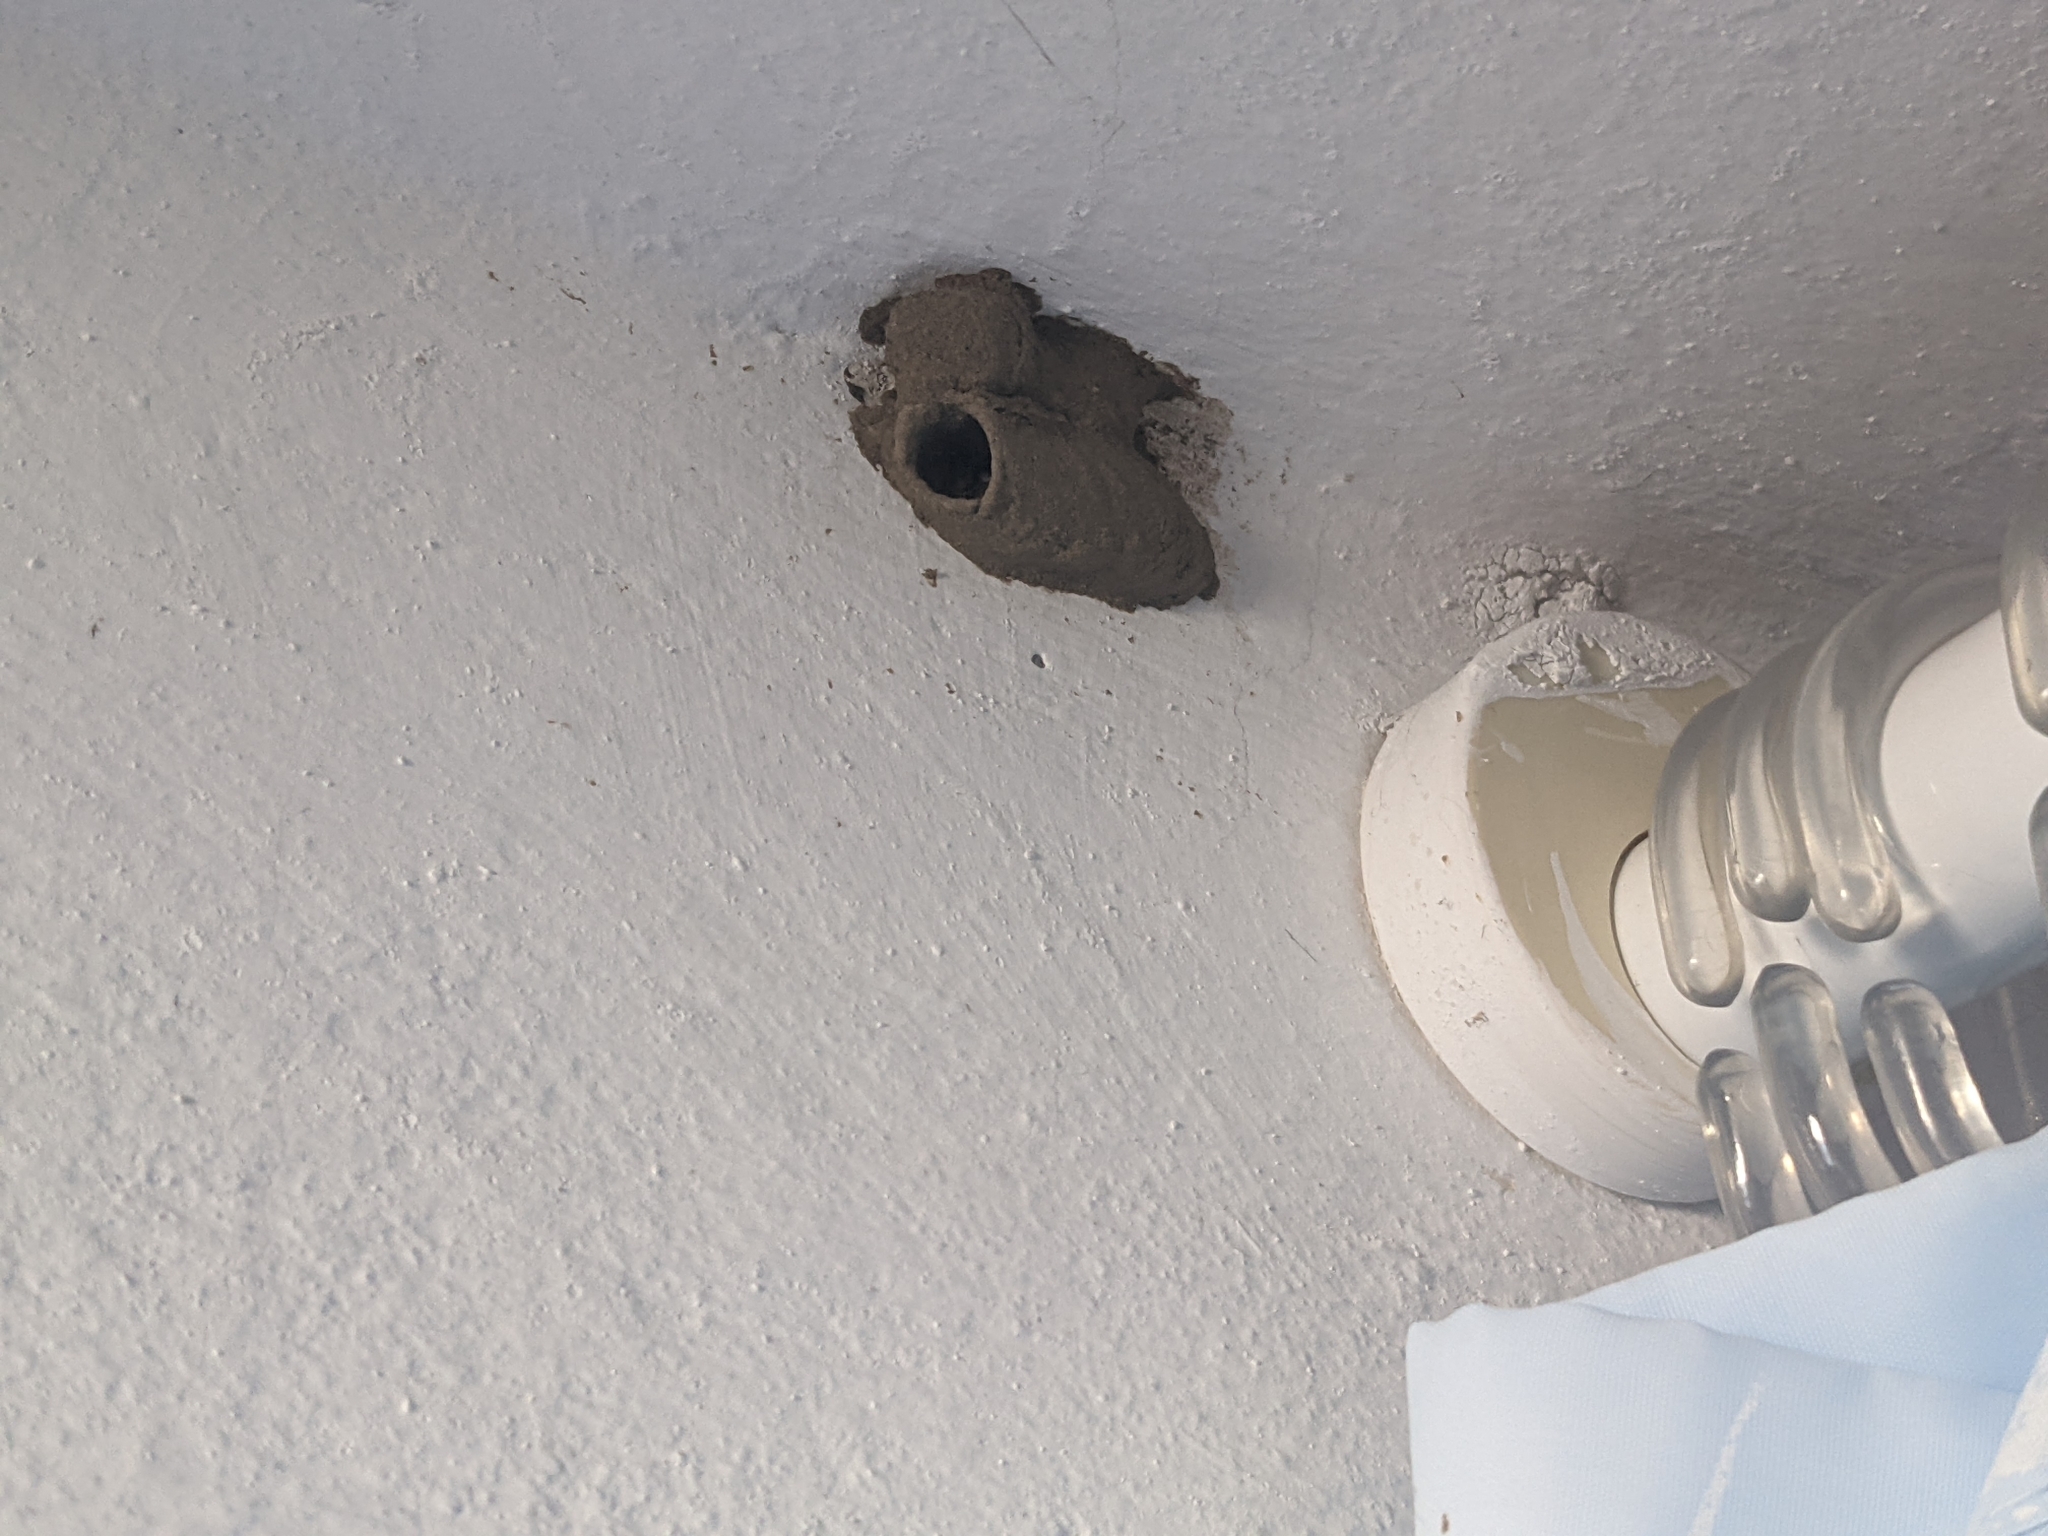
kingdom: Animalia
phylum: Arthropoda
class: Insecta
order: Hymenoptera
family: Sphecidae
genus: Sceliphron
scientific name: Sceliphron
